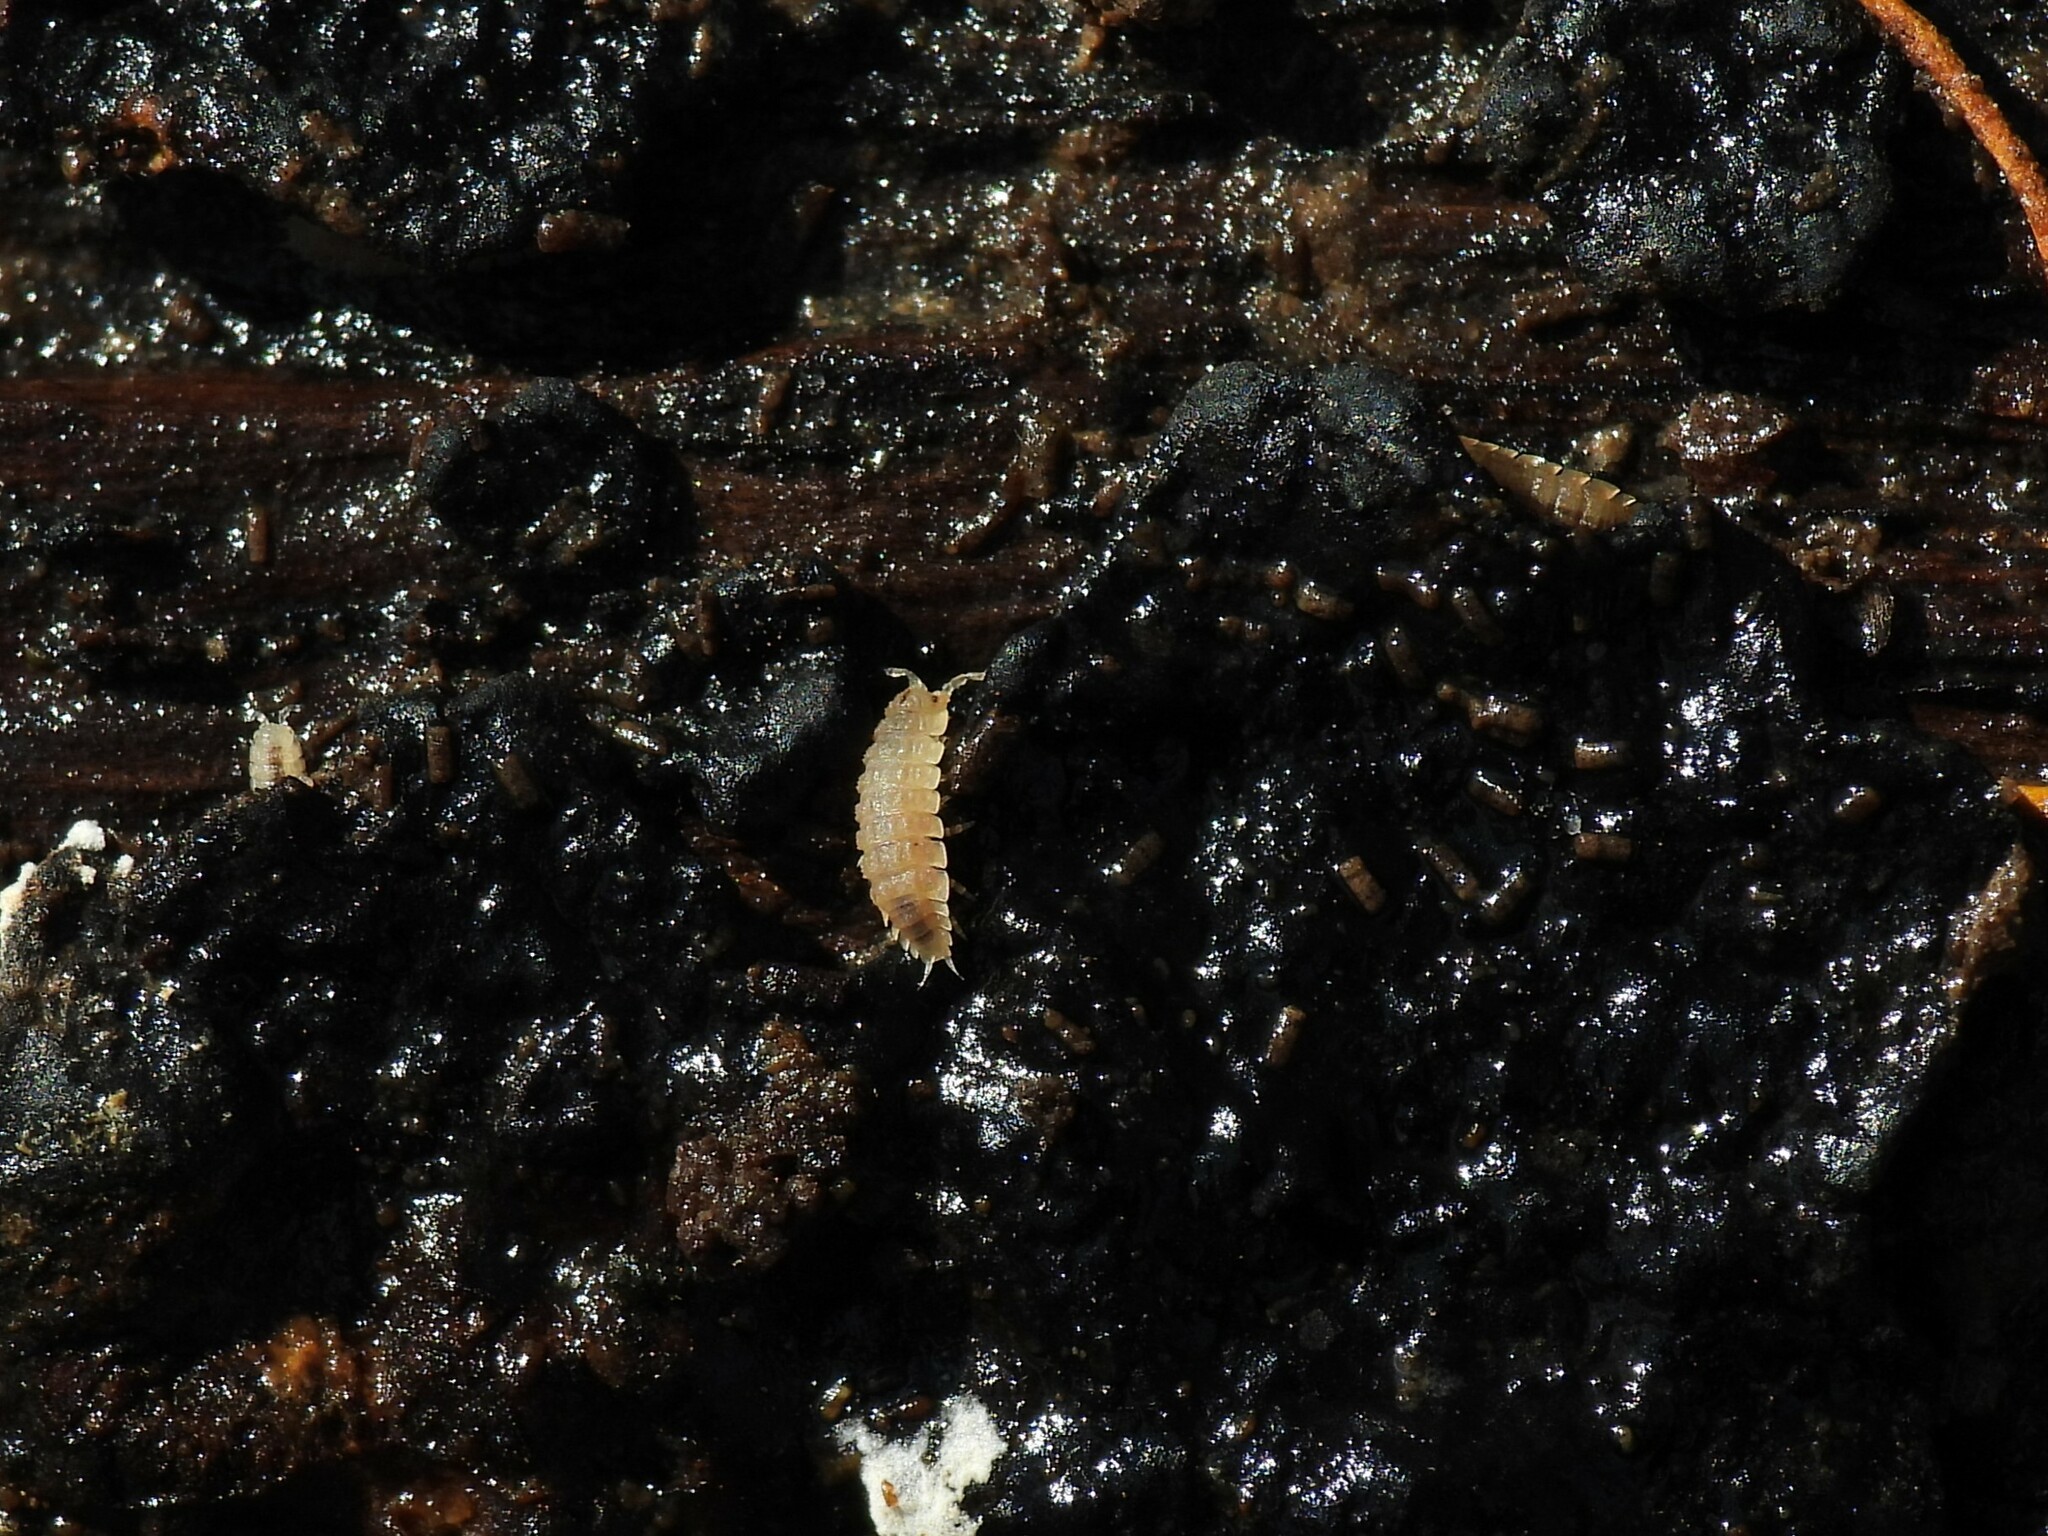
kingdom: Animalia
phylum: Arthropoda
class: Malacostraca
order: Isopoda
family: Trichoniscidae
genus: Haplophthalmus
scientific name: Haplophthalmus danicus
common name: Pillbug
